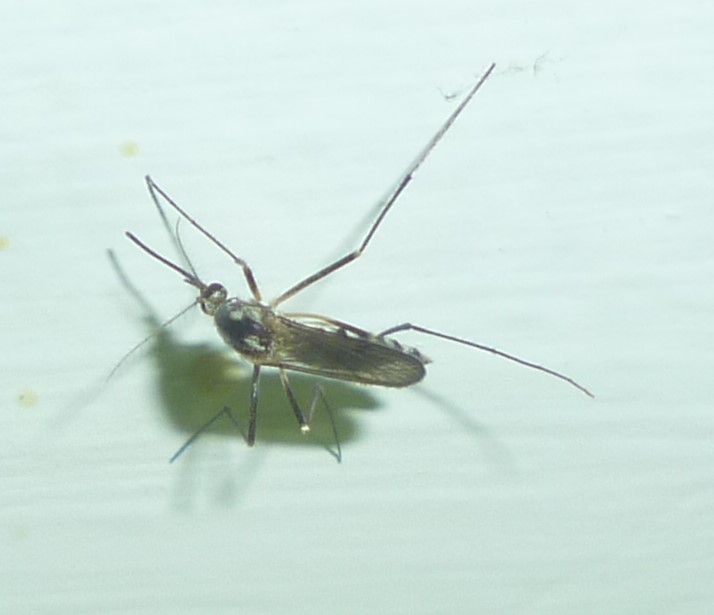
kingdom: Animalia
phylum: Arthropoda
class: Insecta
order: Diptera
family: Culicidae
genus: Aedes
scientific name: Aedes triseriatus
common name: Eastern treehole mosquito
